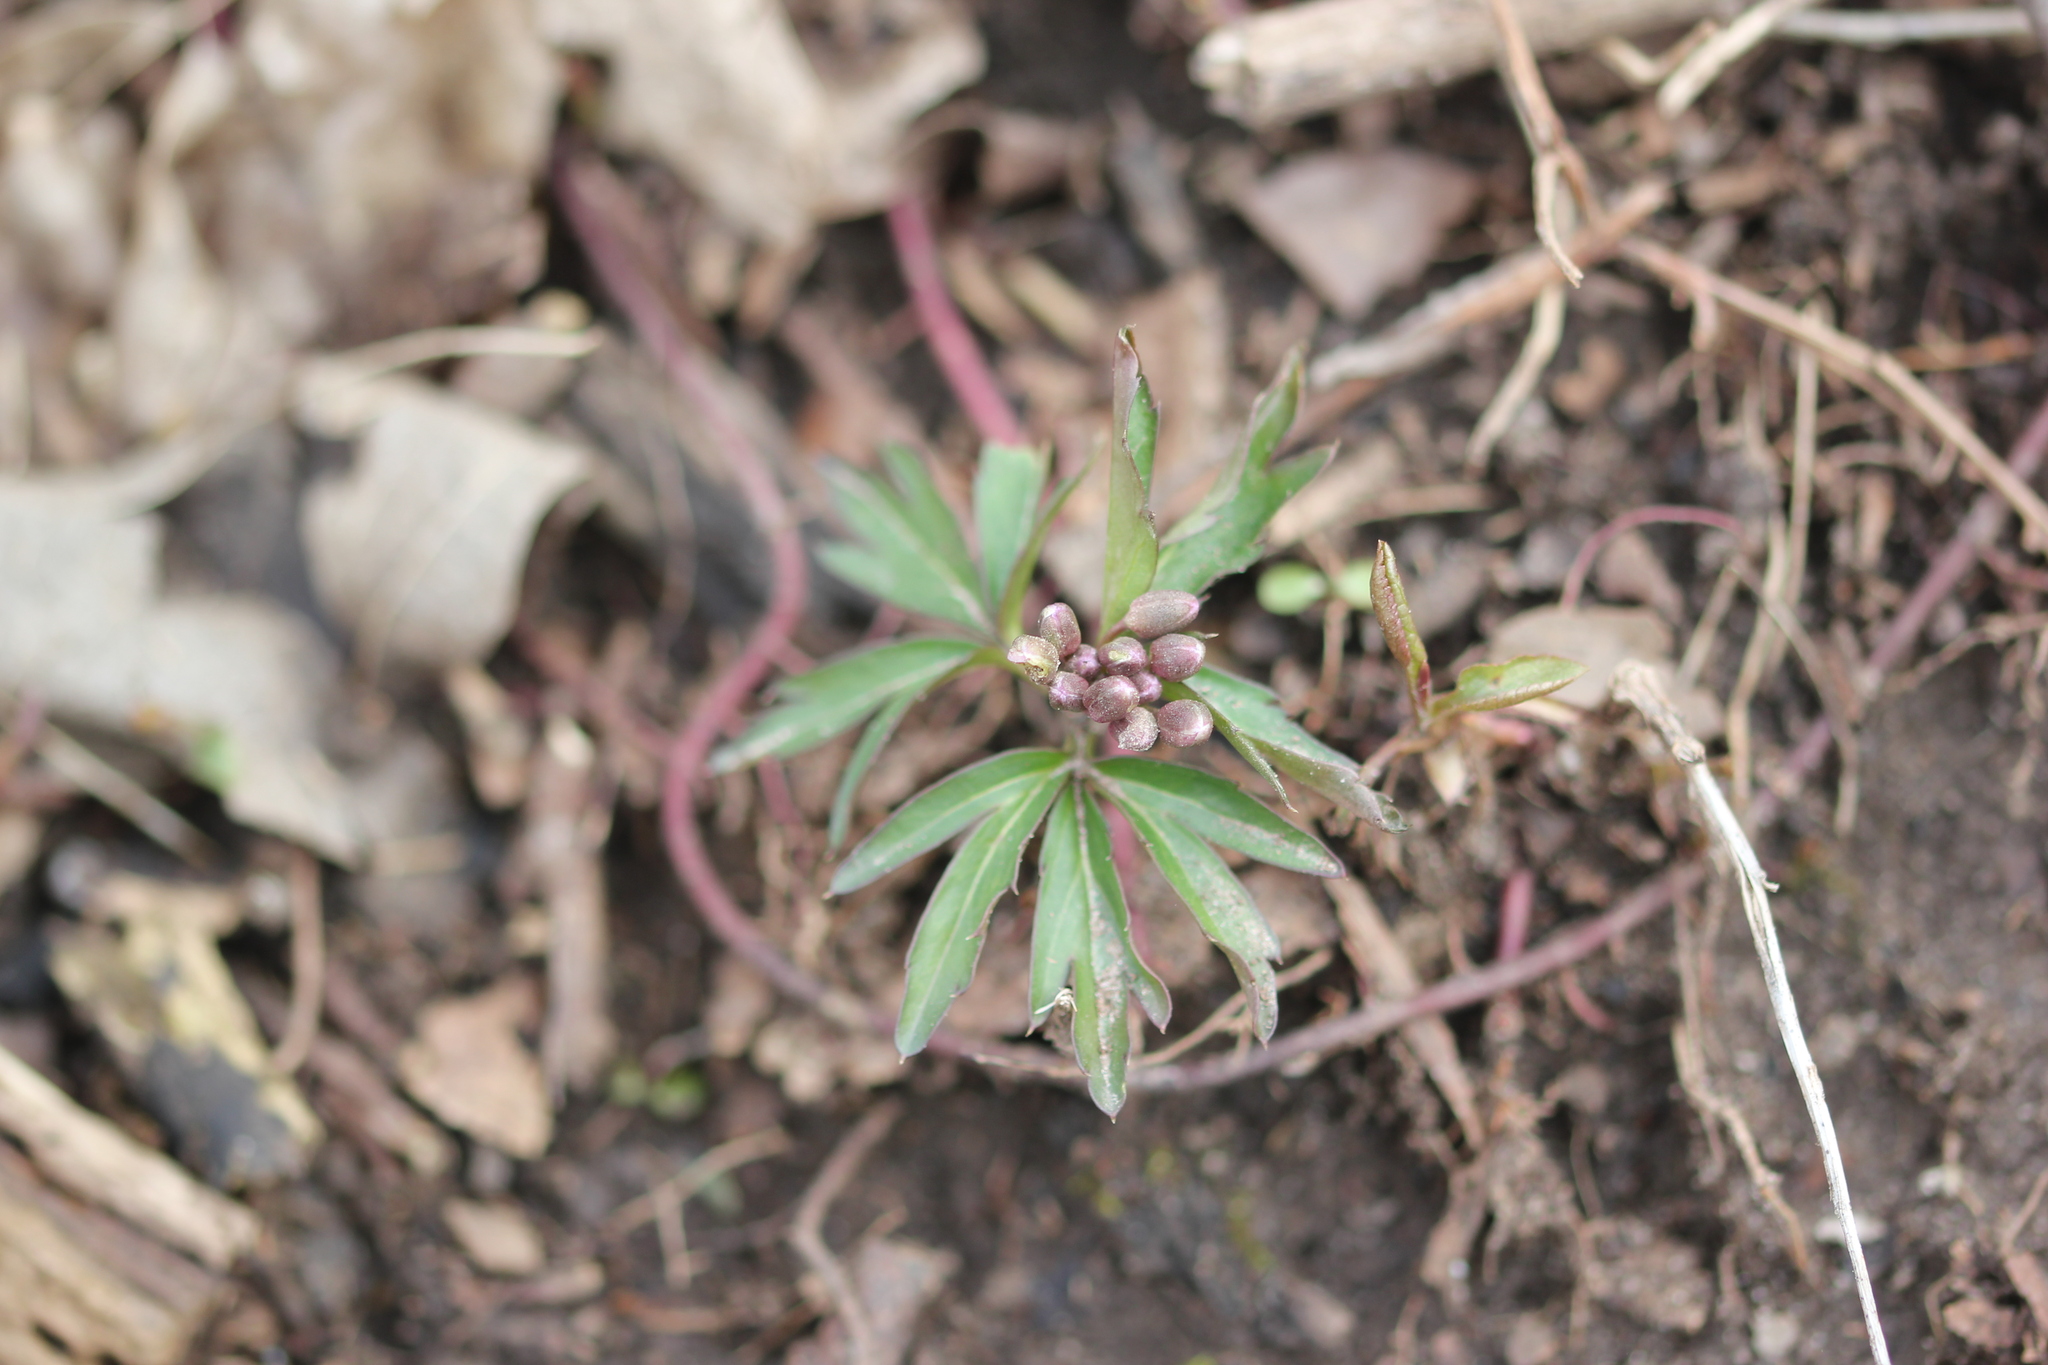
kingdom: Plantae
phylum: Tracheophyta
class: Magnoliopsida
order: Brassicales
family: Brassicaceae
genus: Cardamine
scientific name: Cardamine concatenata
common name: Cut-leaf toothcup
